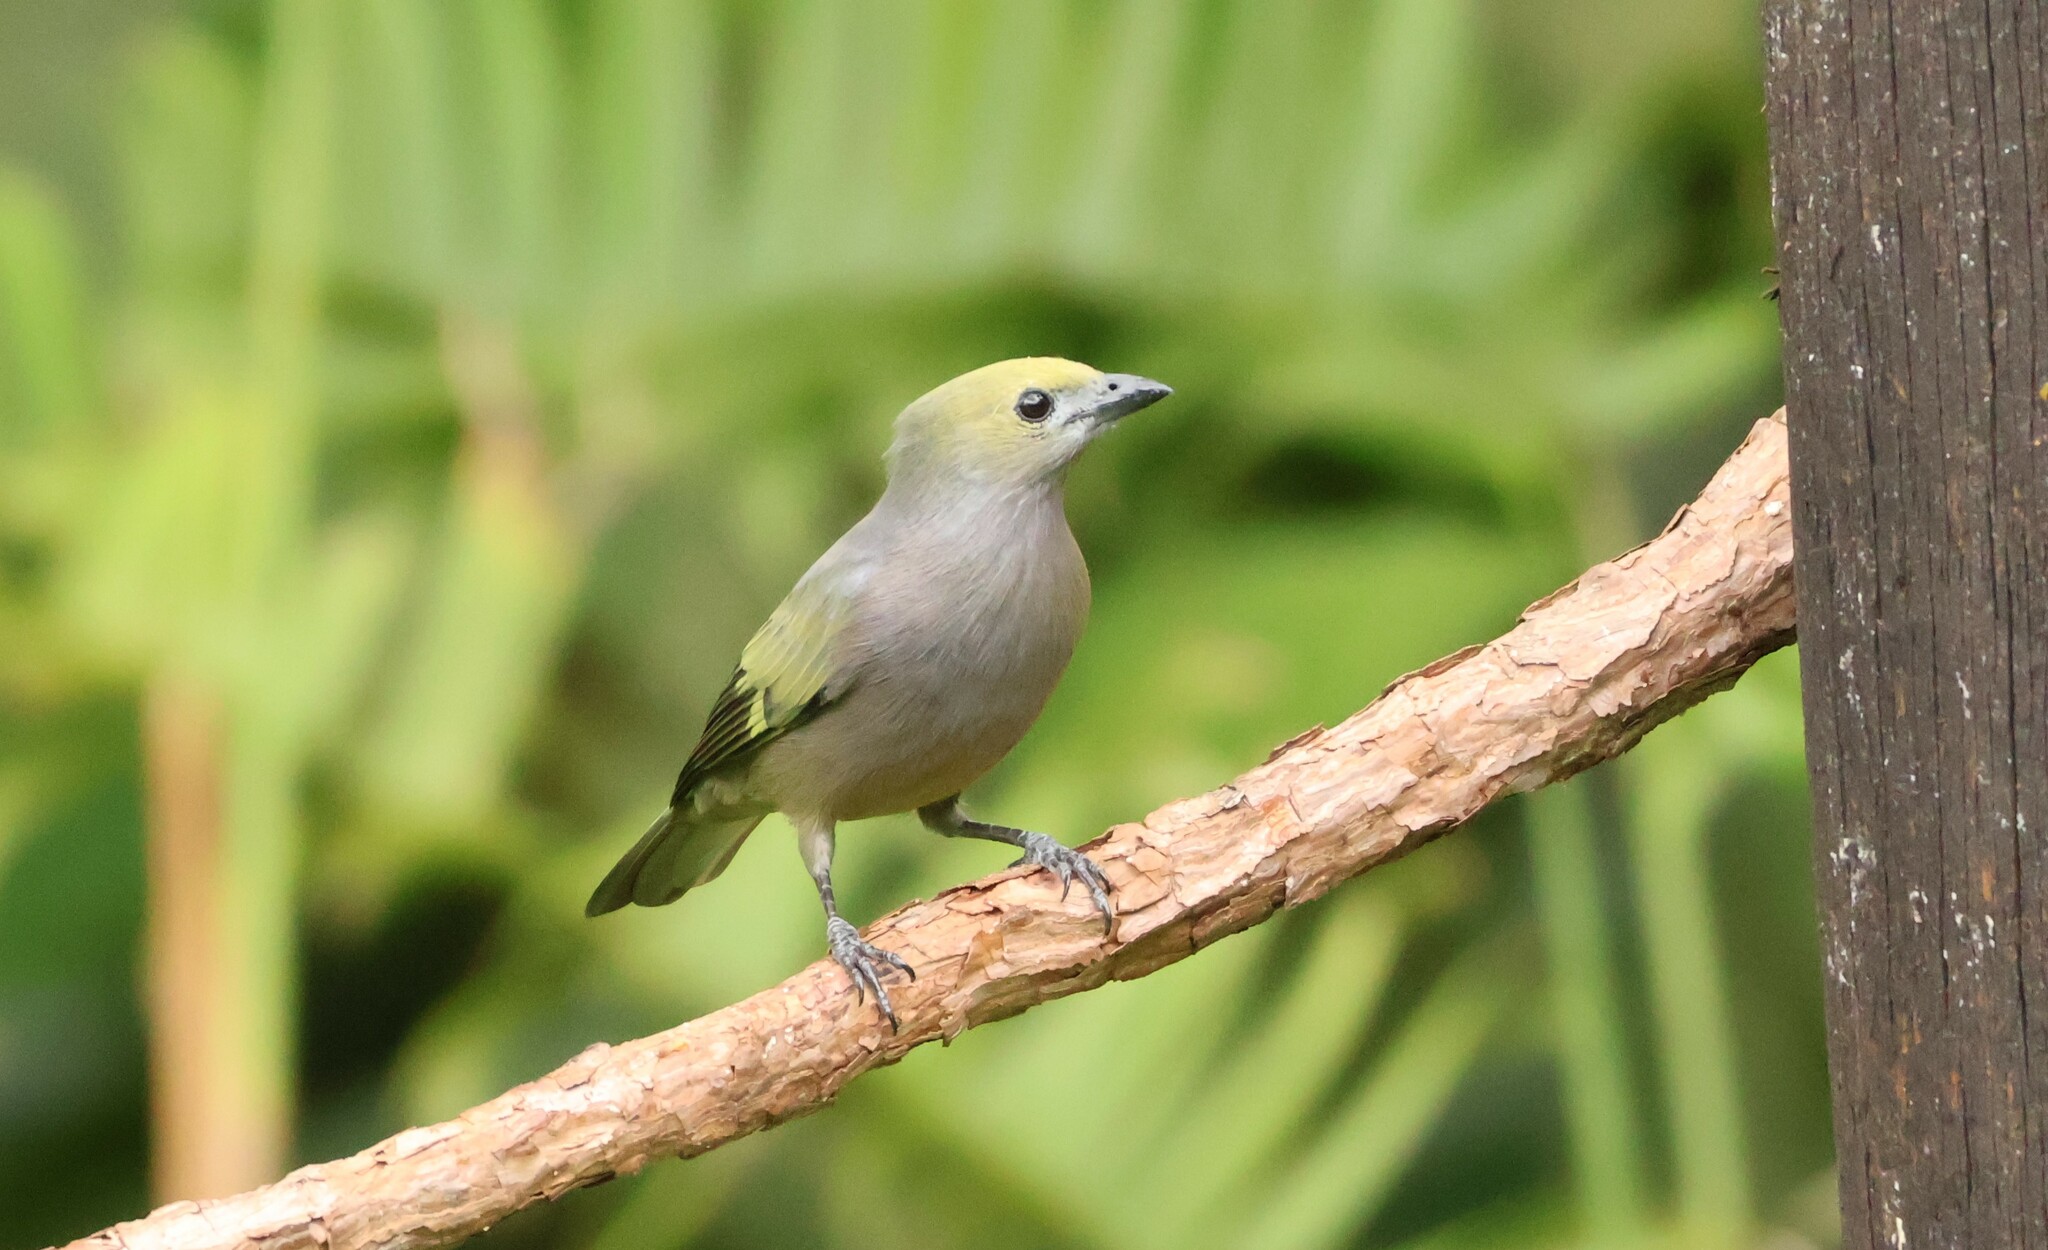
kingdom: Animalia
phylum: Chordata
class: Aves
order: Passeriformes
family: Thraupidae
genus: Thraupis
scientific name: Thraupis palmarum
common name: Palm tanager
